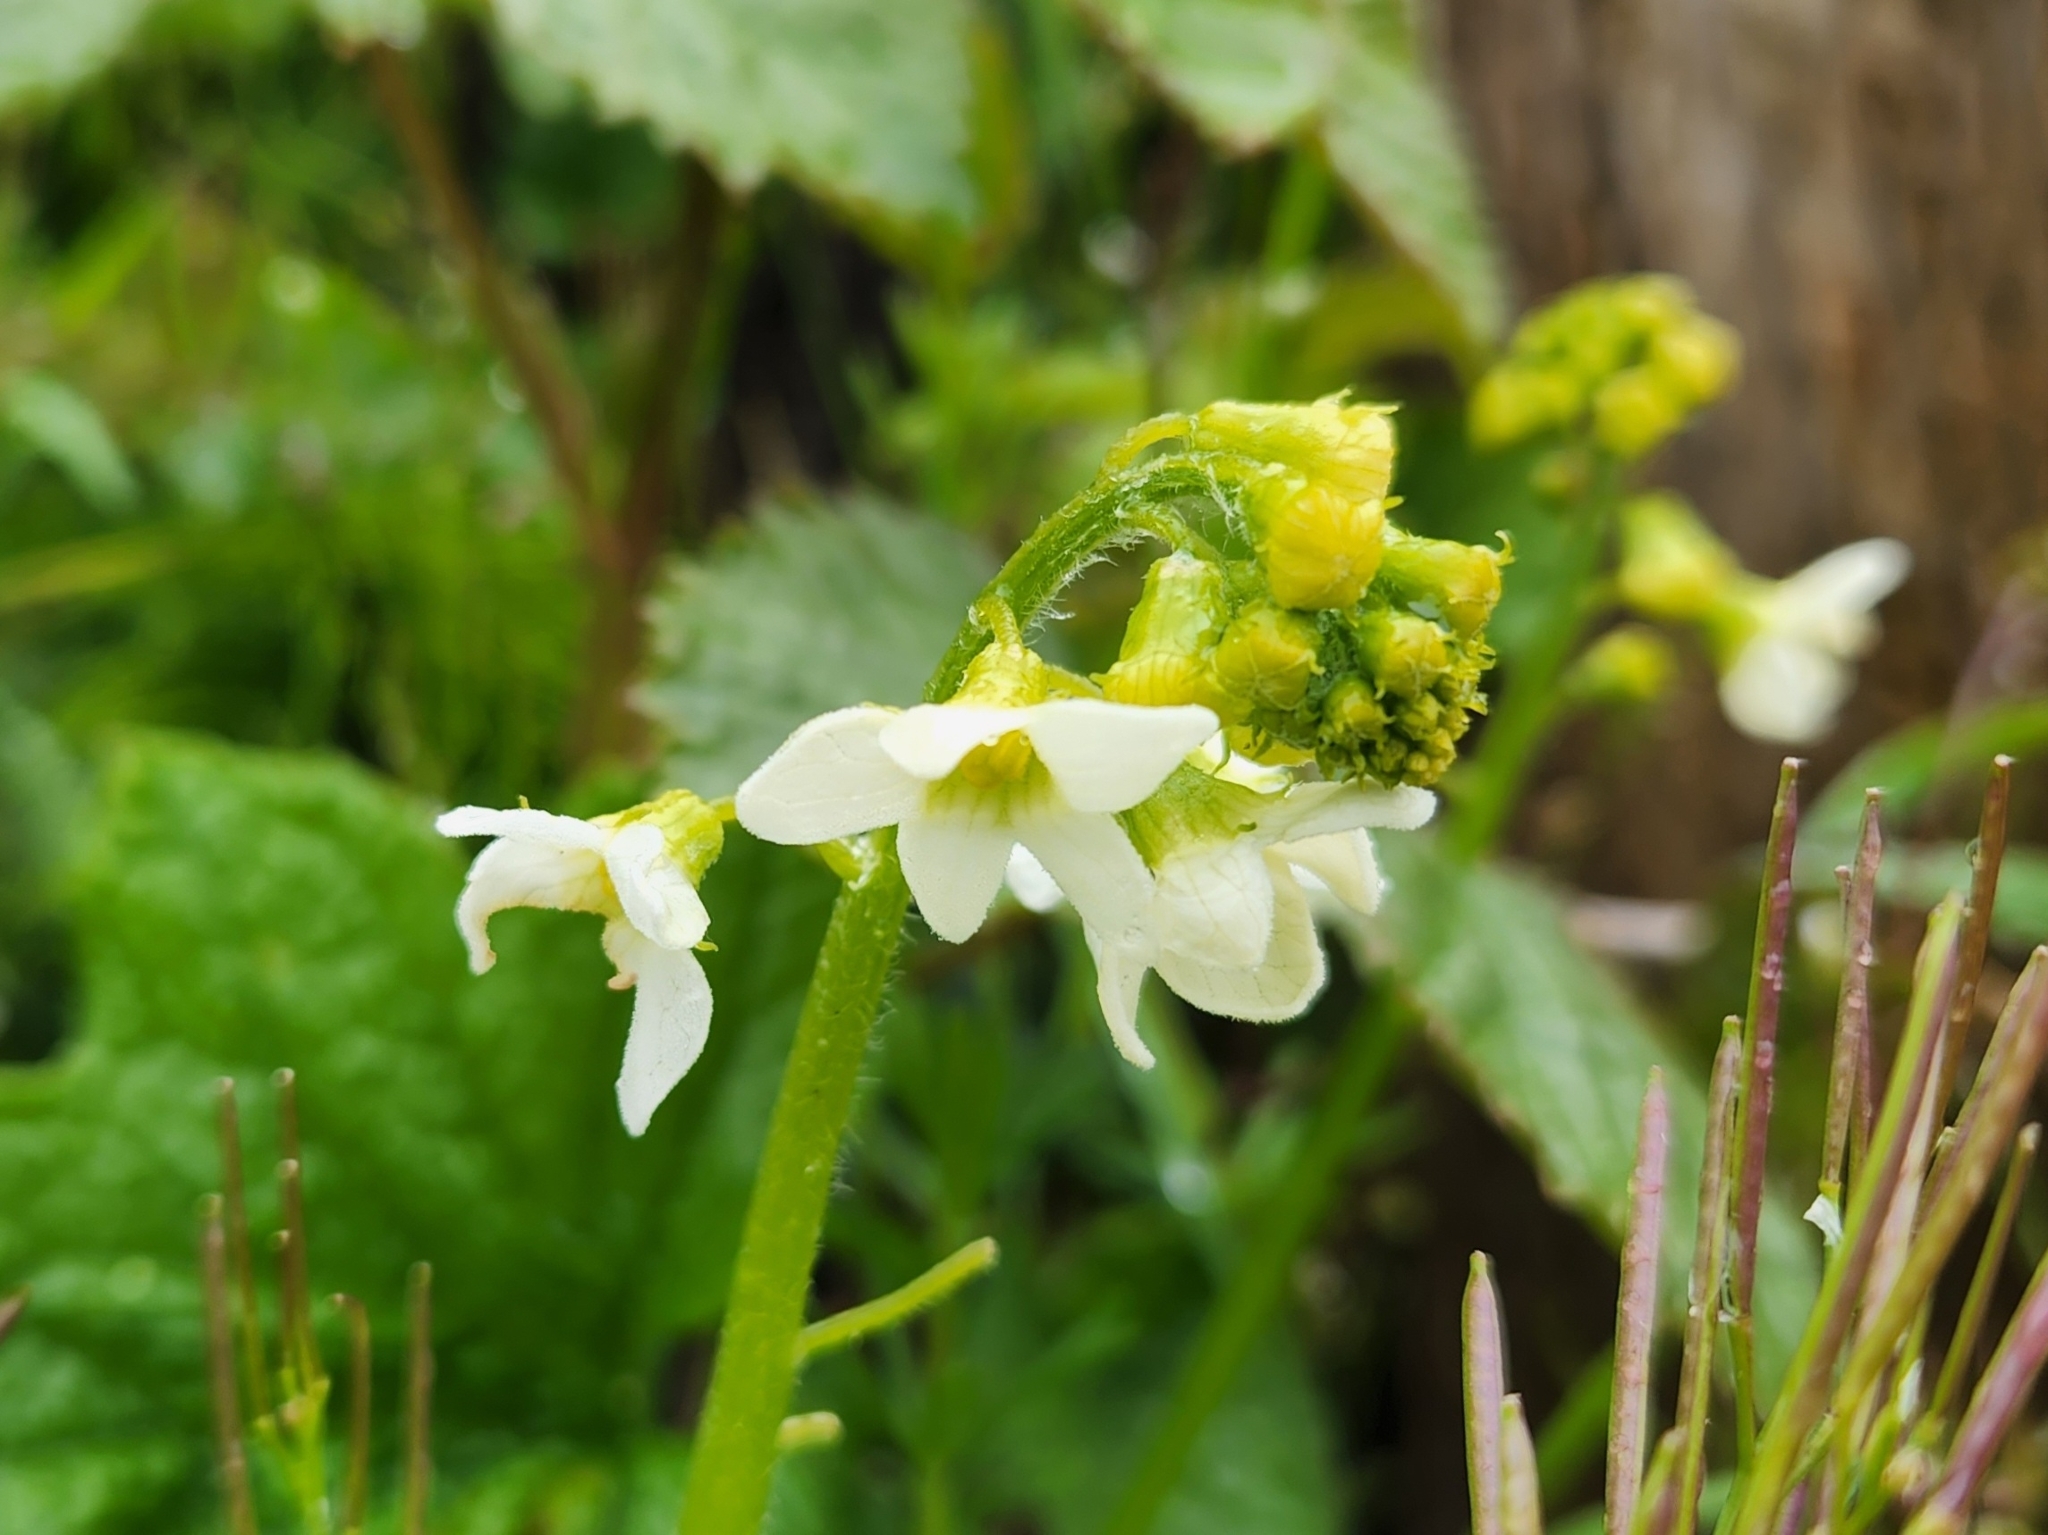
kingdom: Plantae
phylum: Tracheophyta
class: Magnoliopsida
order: Cucurbitales
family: Cucurbitaceae
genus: Marah
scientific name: Marah oregana
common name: Coastal manroot
